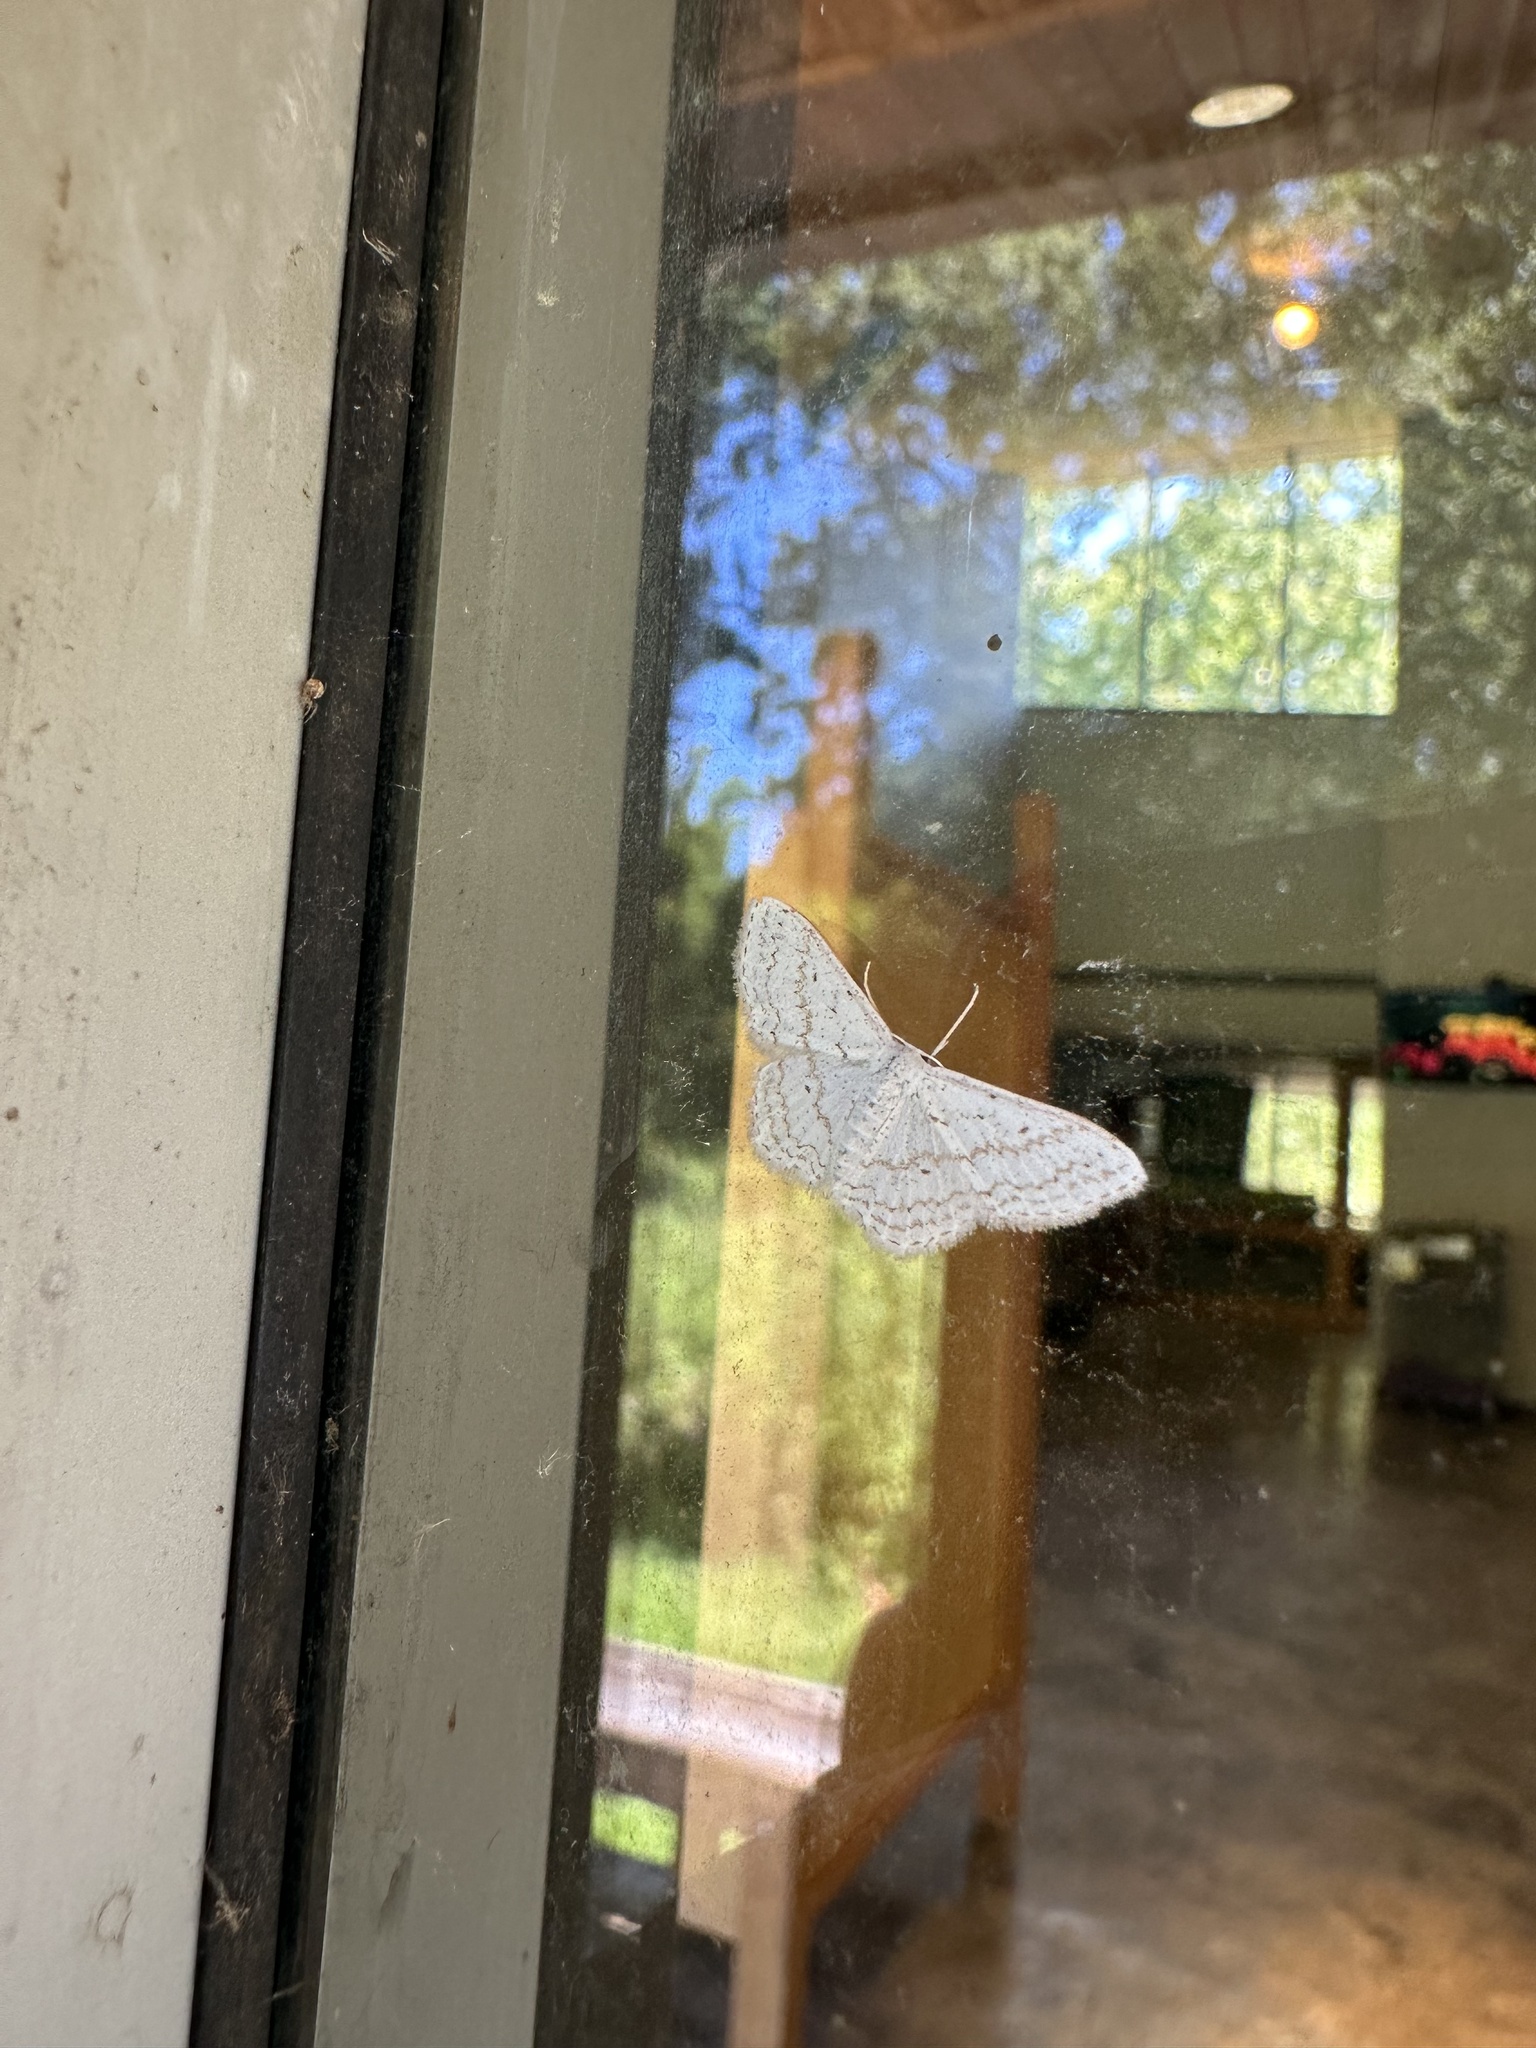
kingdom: Animalia
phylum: Arthropoda
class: Insecta
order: Lepidoptera
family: Geometridae
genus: Idaea
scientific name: Idaea tacturata
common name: Dot-lined wave
